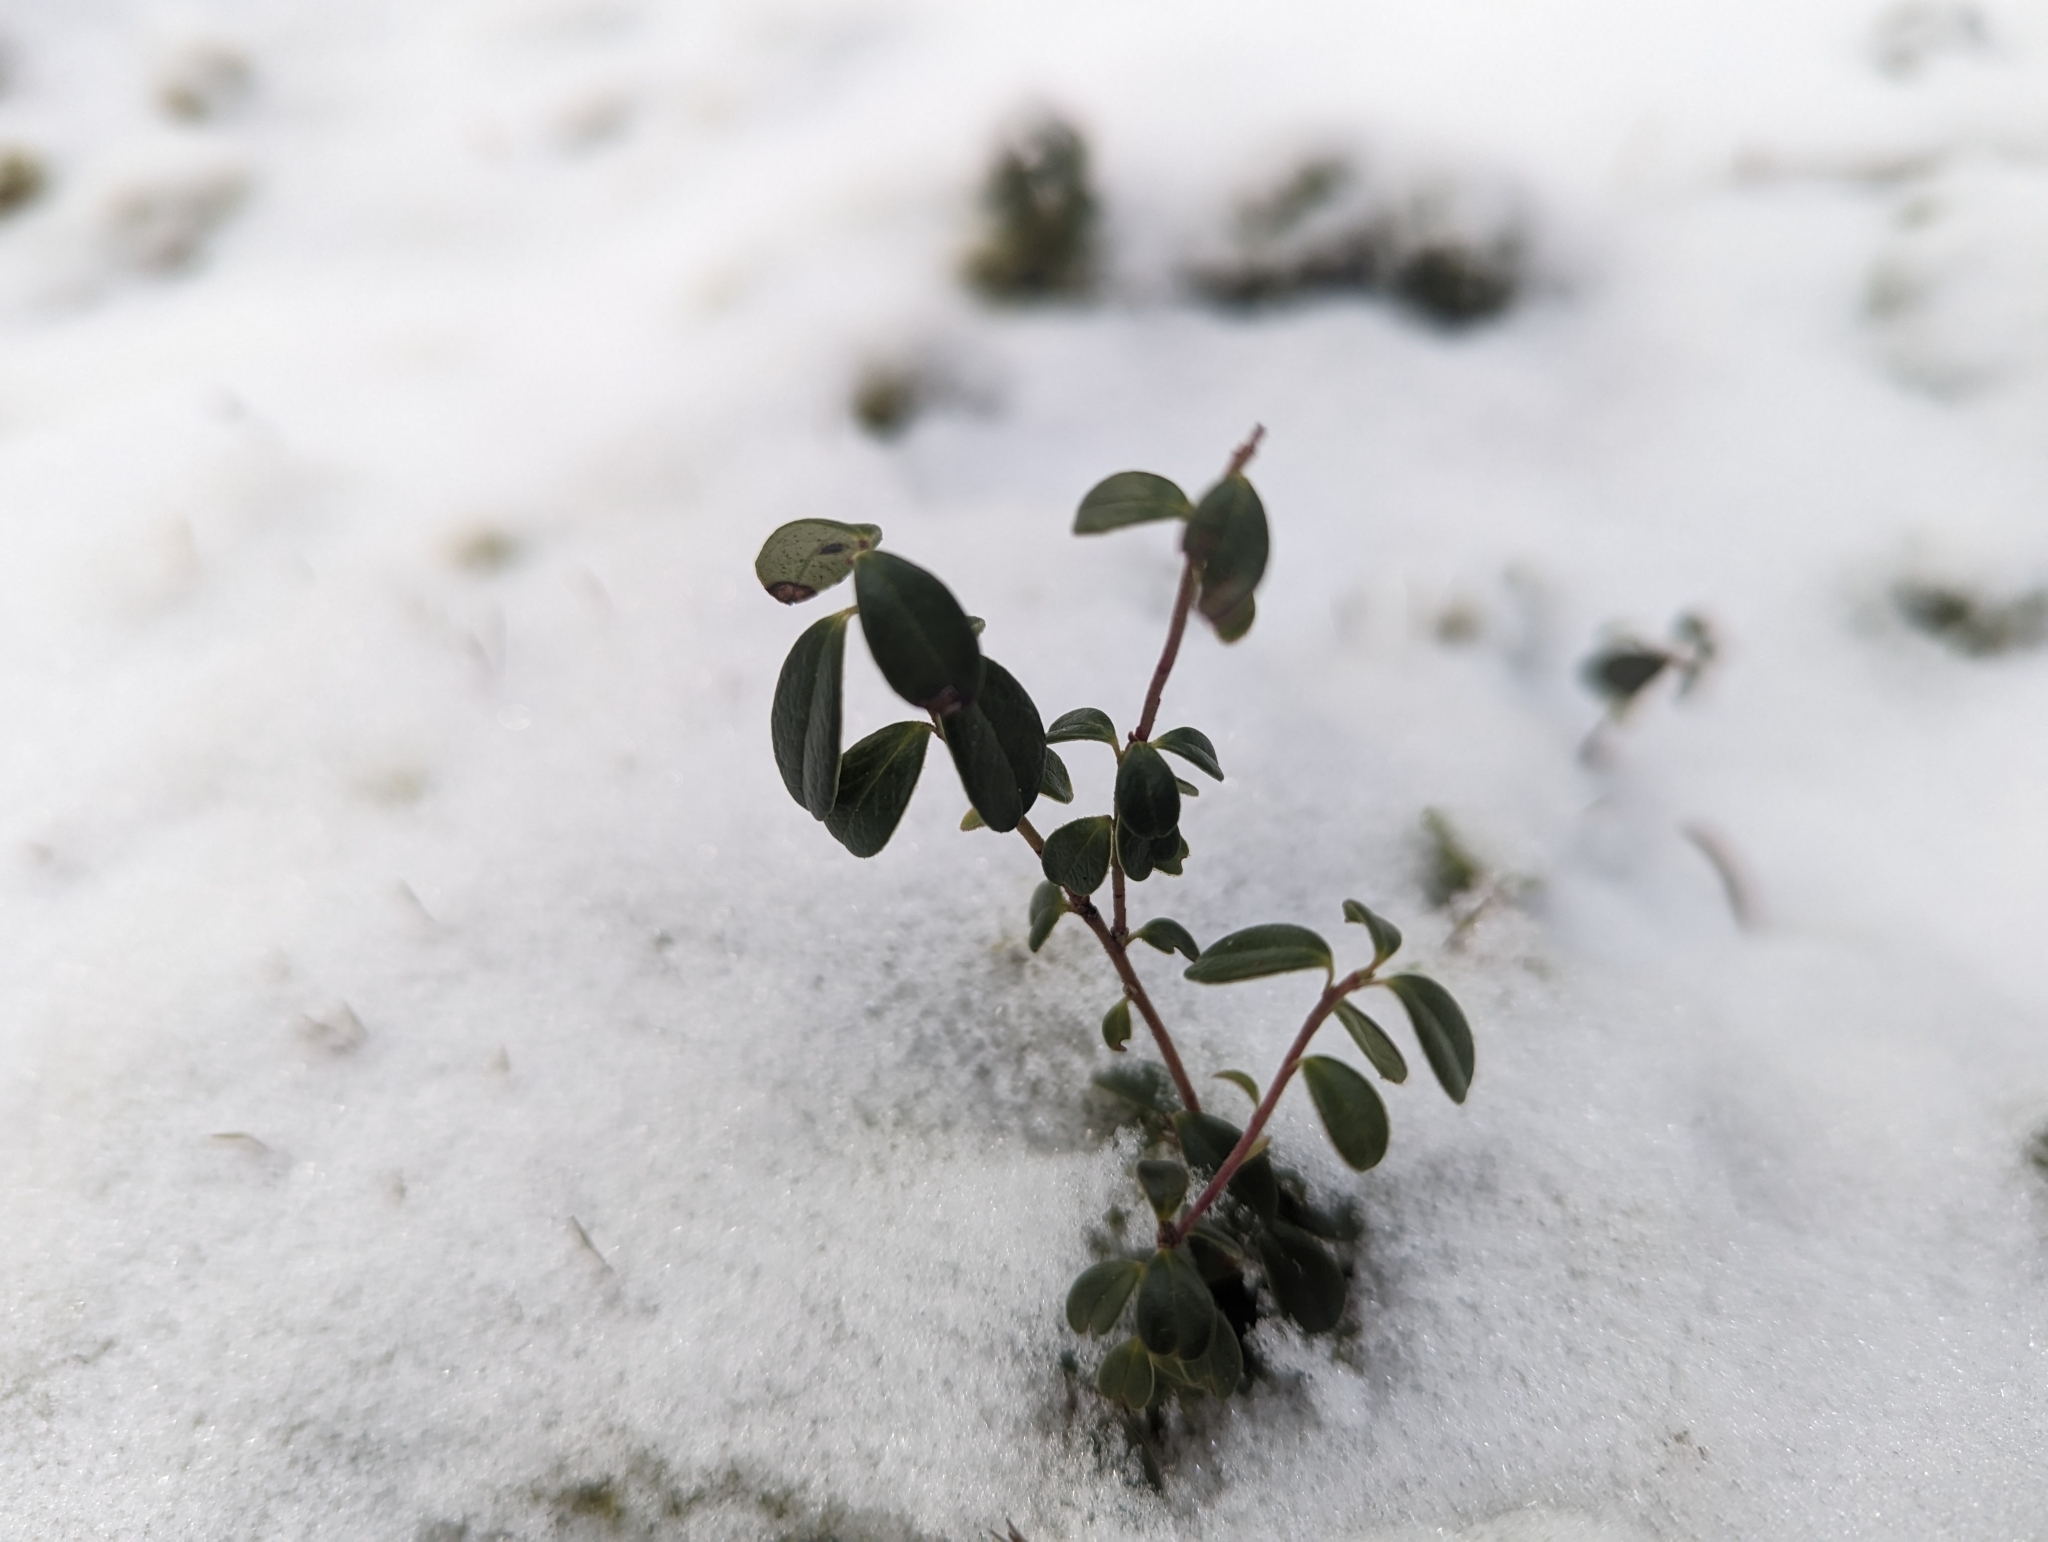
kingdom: Plantae
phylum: Tracheophyta
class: Magnoliopsida
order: Ericales
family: Ericaceae
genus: Vaccinium
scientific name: Vaccinium vitis-idaea
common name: Cowberry
